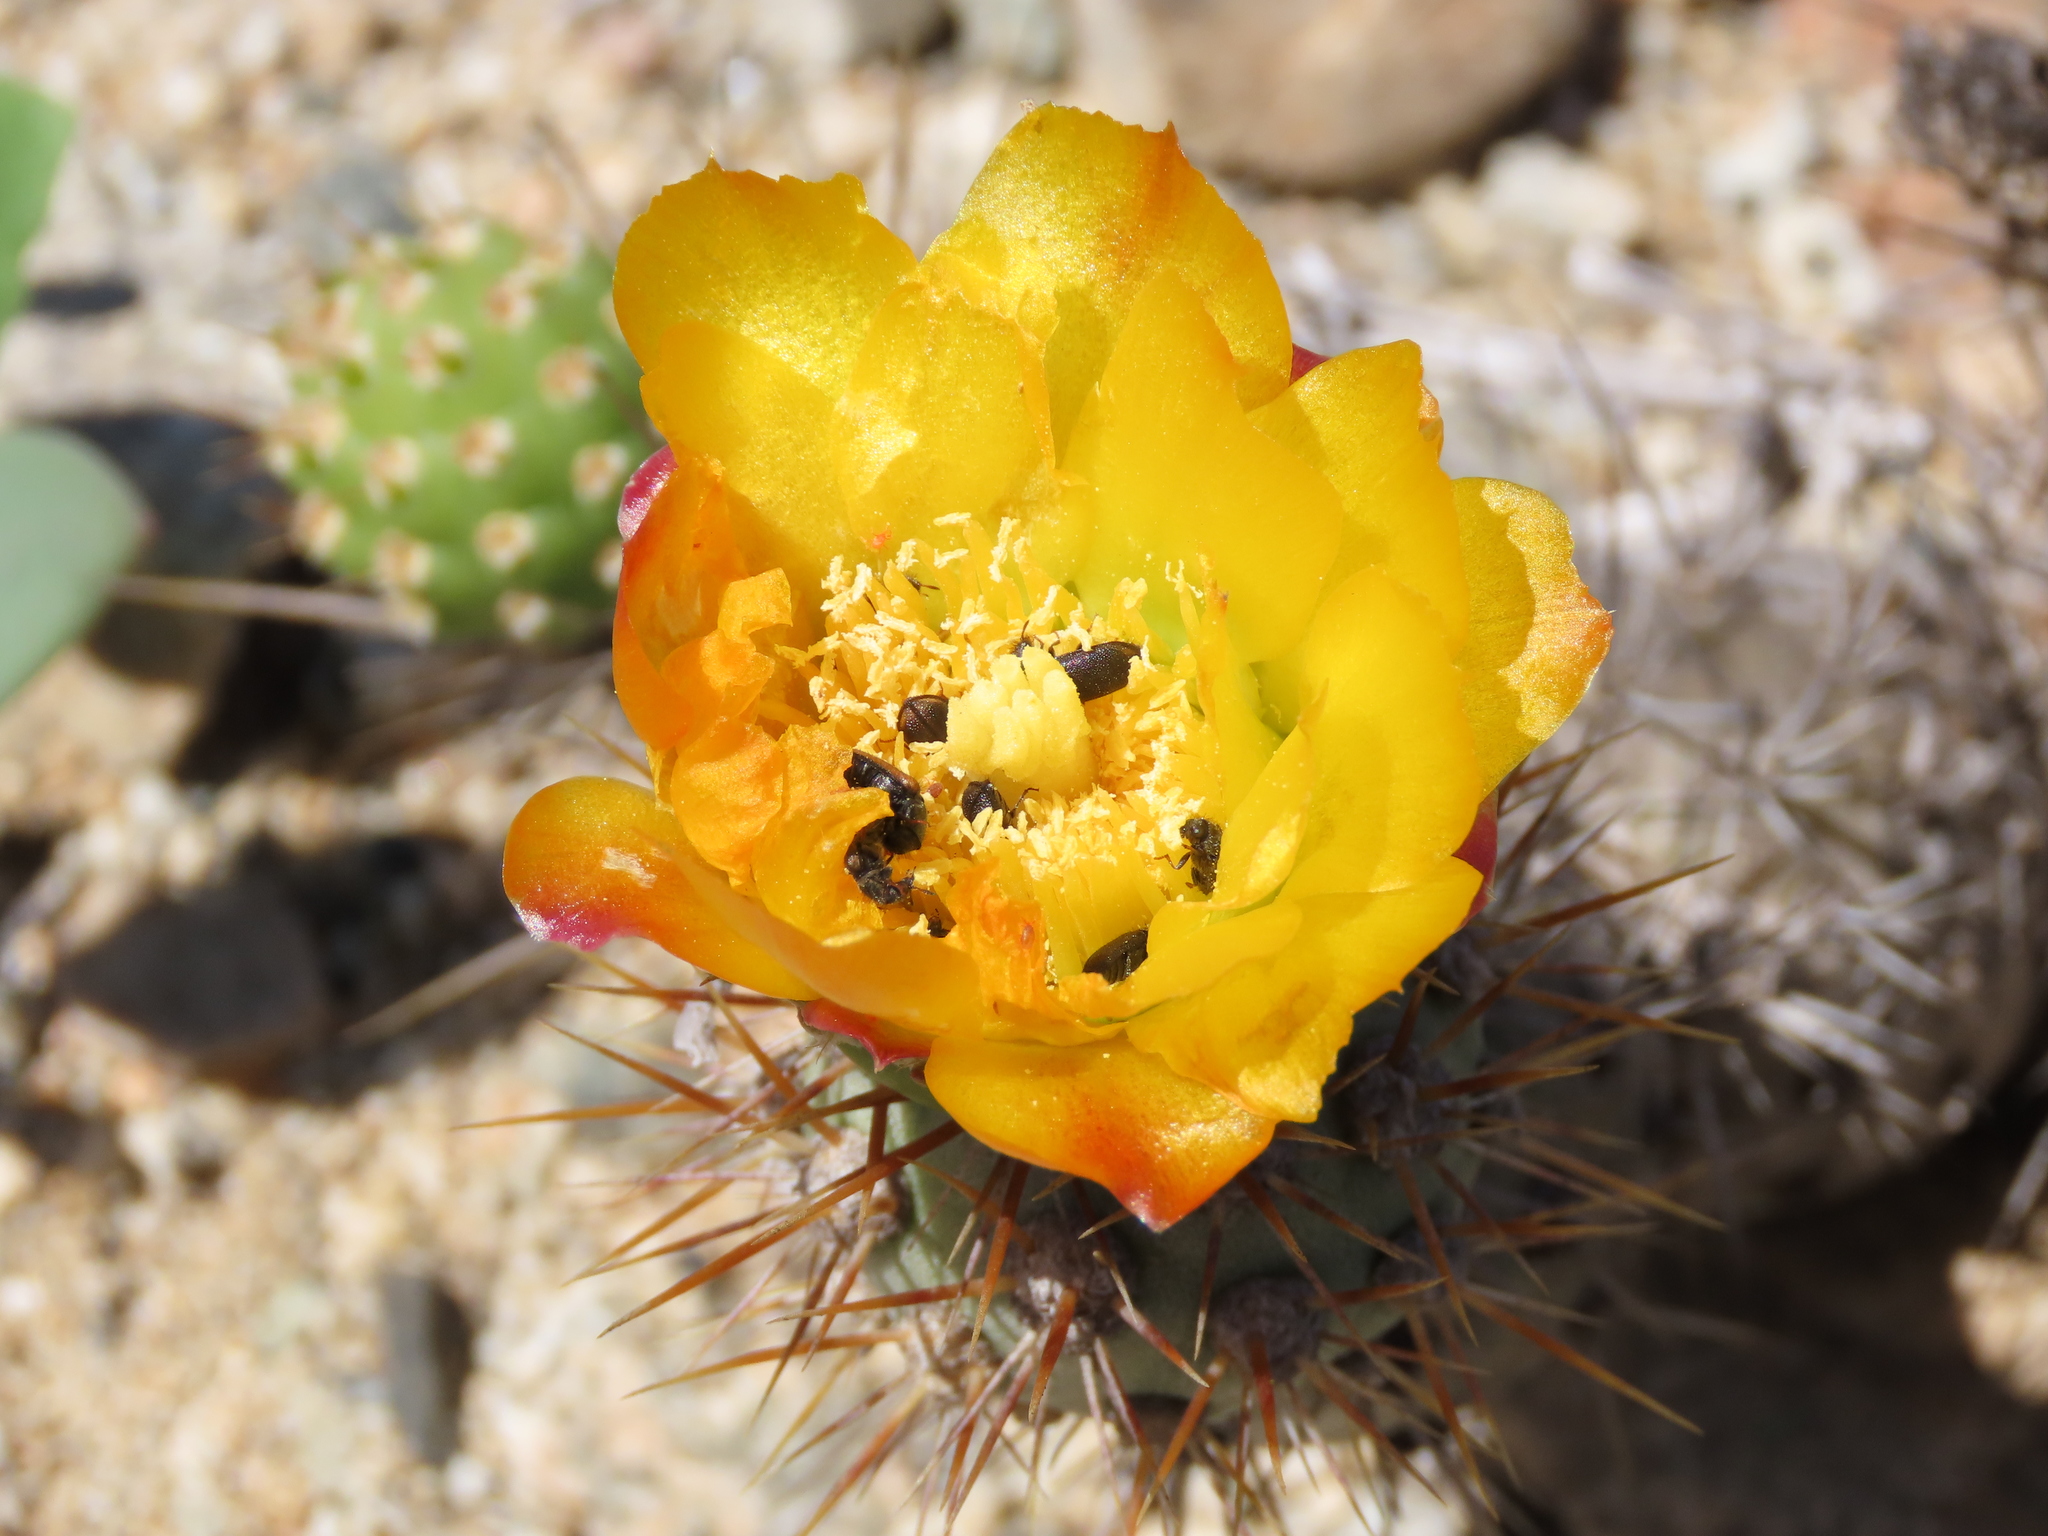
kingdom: Plantae
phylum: Tracheophyta
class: Magnoliopsida
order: Caryophyllales
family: Cactaceae
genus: Cumulopuntia
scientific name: Cumulopuntia leucophaea
